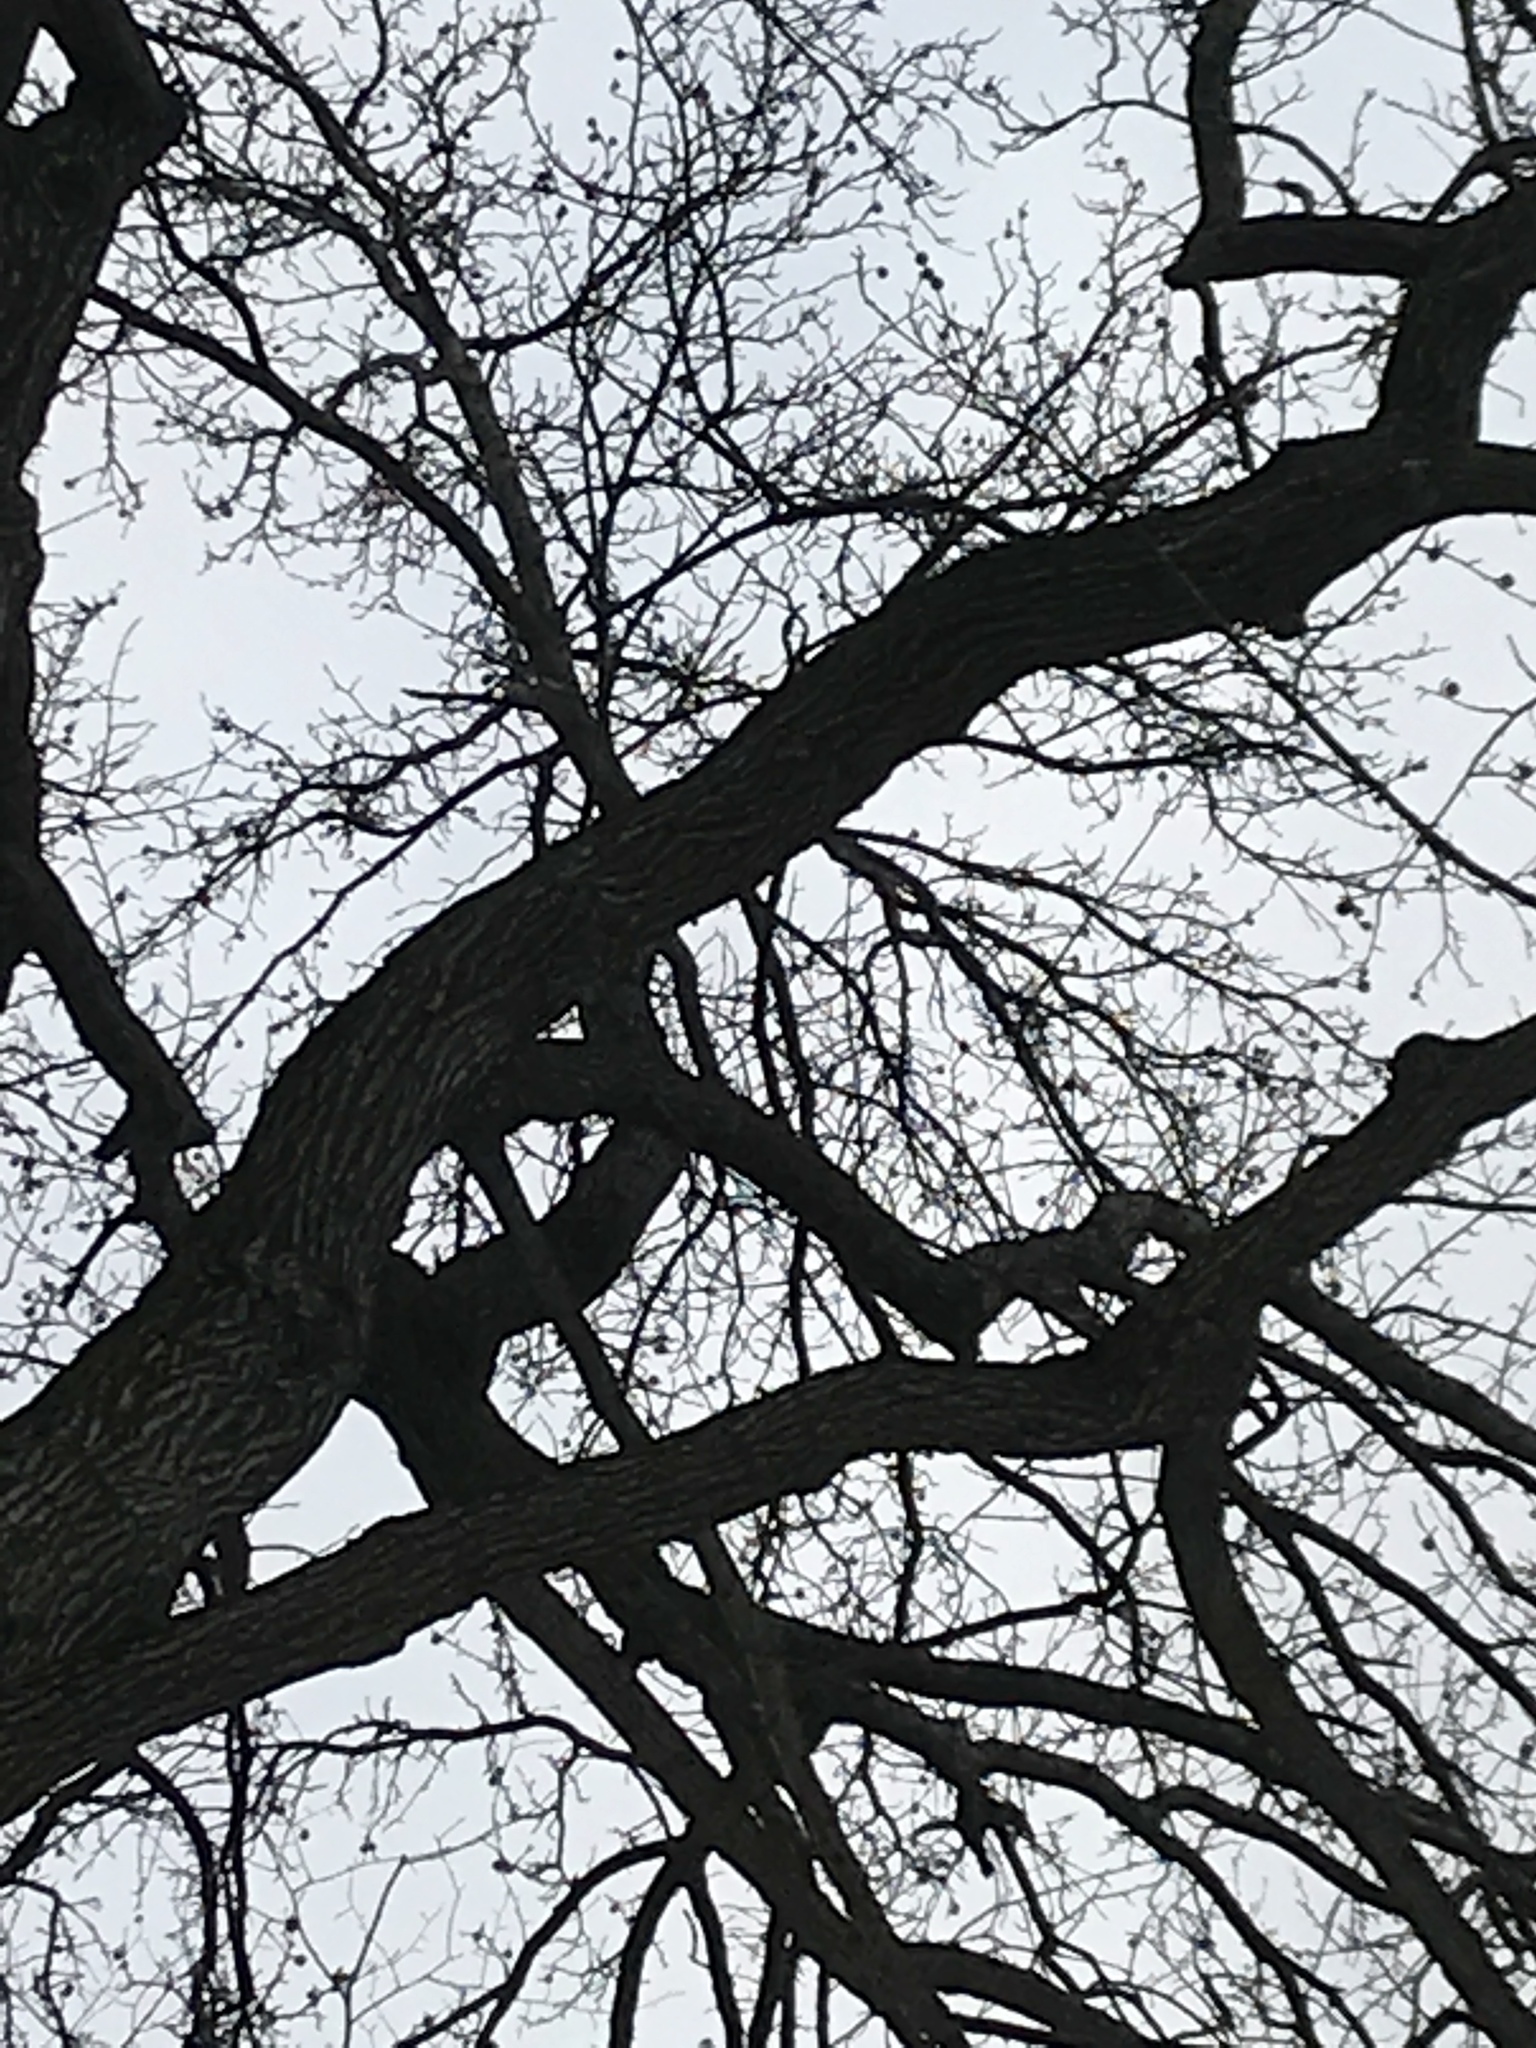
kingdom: Plantae
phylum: Tracheophyta
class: Magnoliopsida
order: Saxifragales
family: Altingiaceae
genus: Liquidambar
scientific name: Liquidambar styraciflua
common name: Sweet gum
